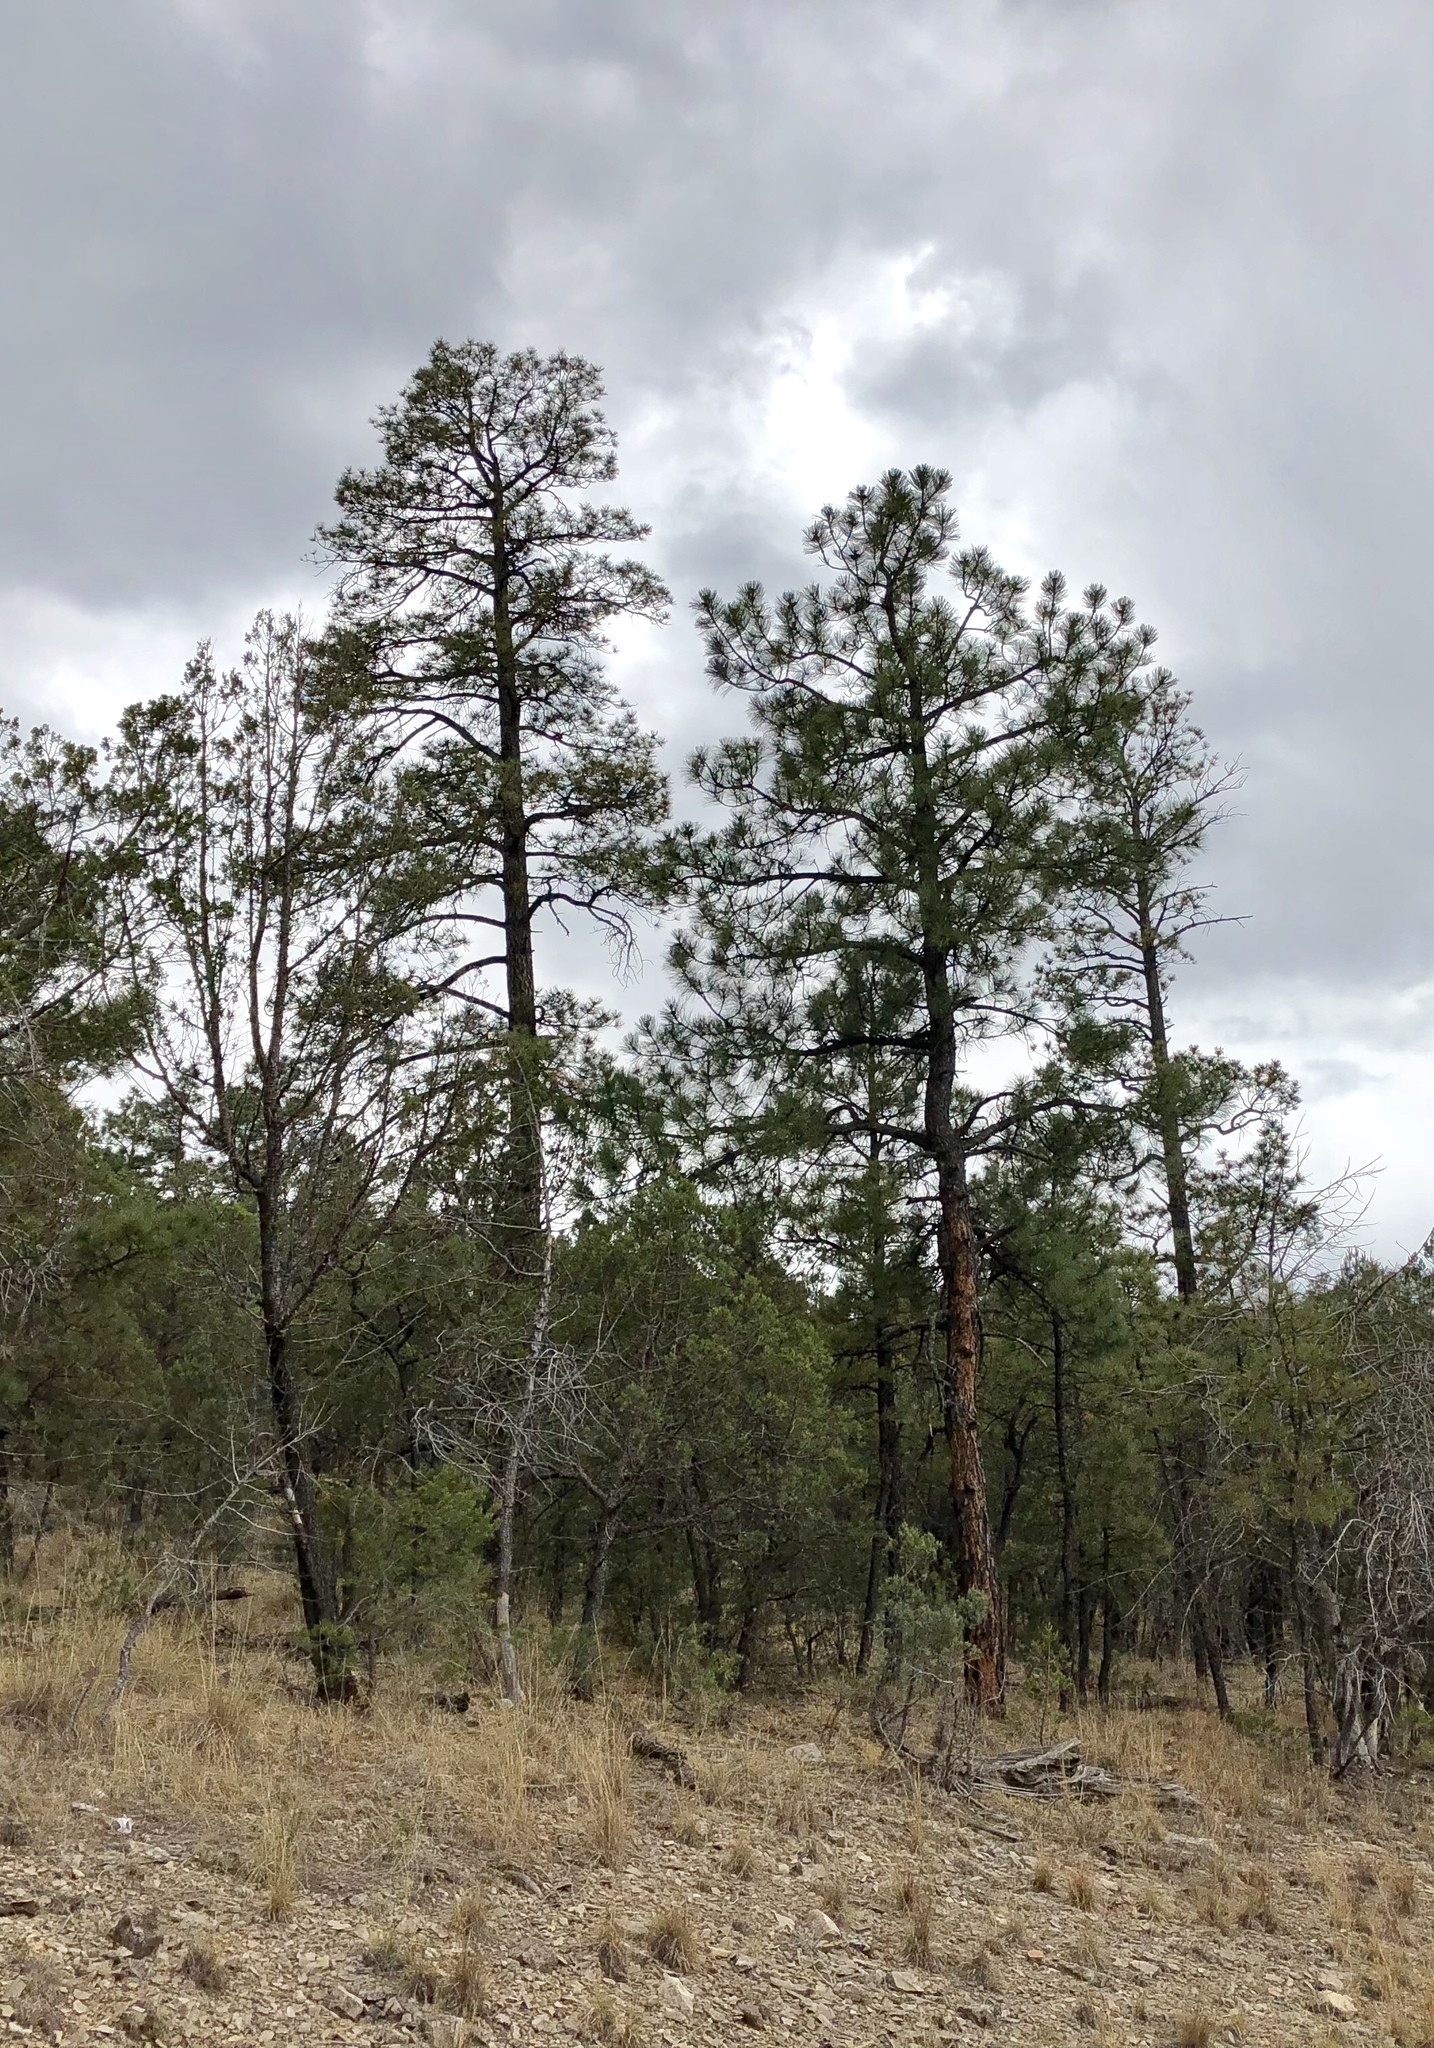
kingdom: Plantae
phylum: Tracheophyta
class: Pinopsida
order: Pinales
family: Pinaceae
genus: Pinus
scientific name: Pinus ponderosa
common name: Western yellow-pine
